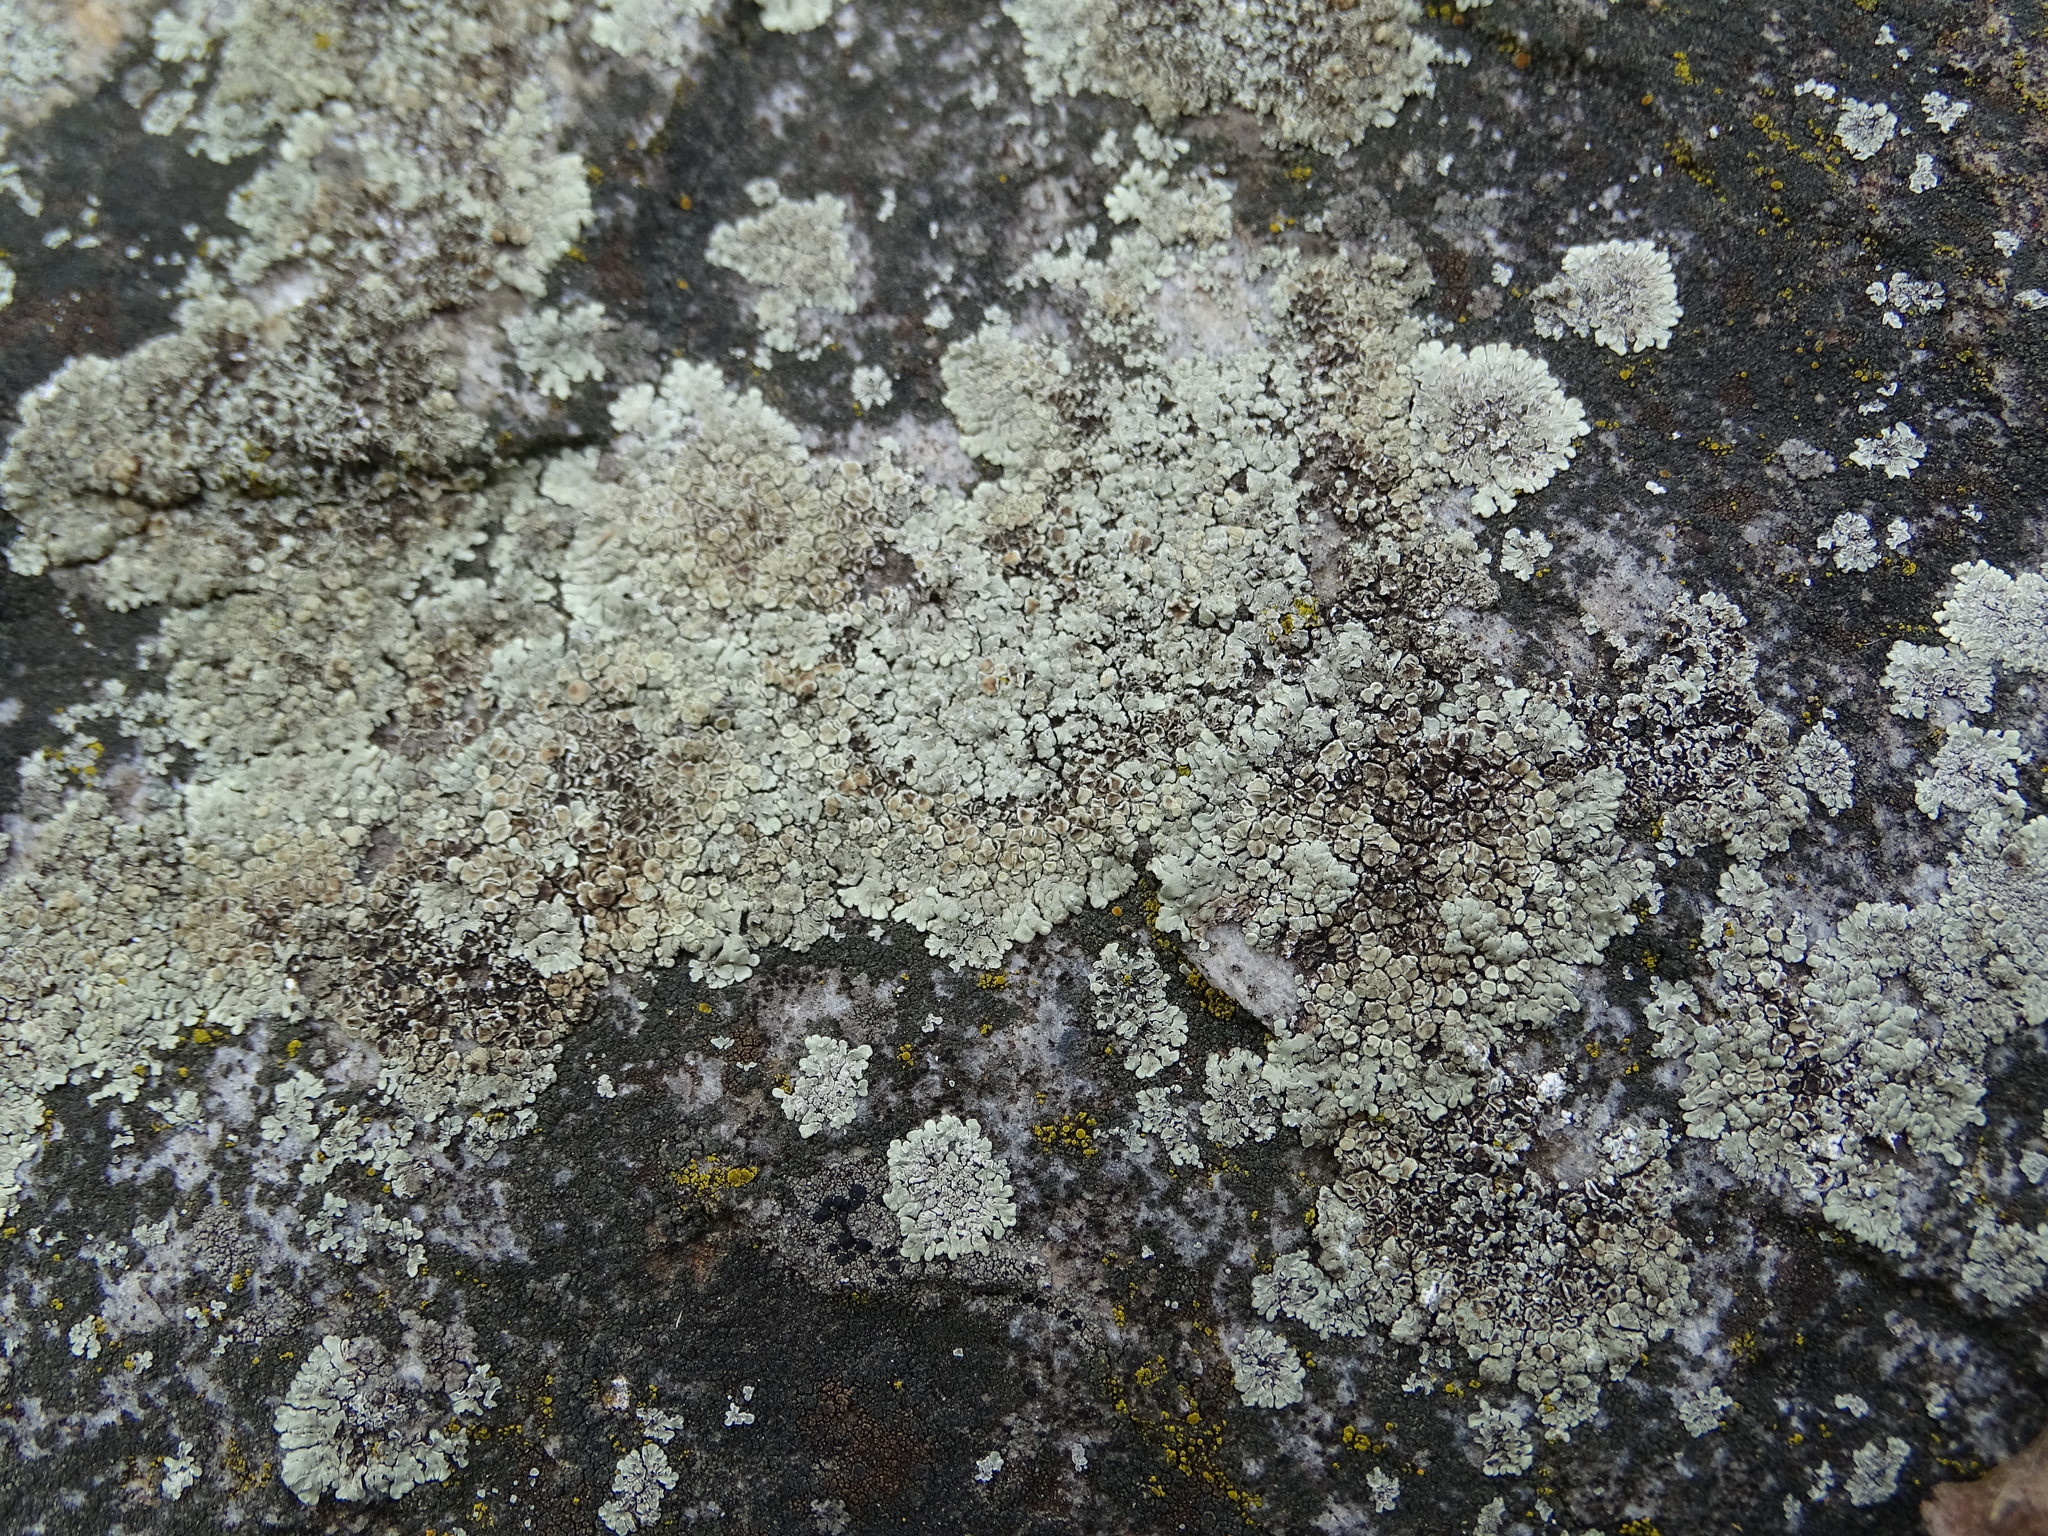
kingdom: Fungi
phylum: Ascomycota
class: Lecanoromycetes
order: Lecanorales
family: Lecanoraceae
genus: Protoparmeliopsis
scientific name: Protoparmeliopsis muralis
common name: Stonewall rim lichen
